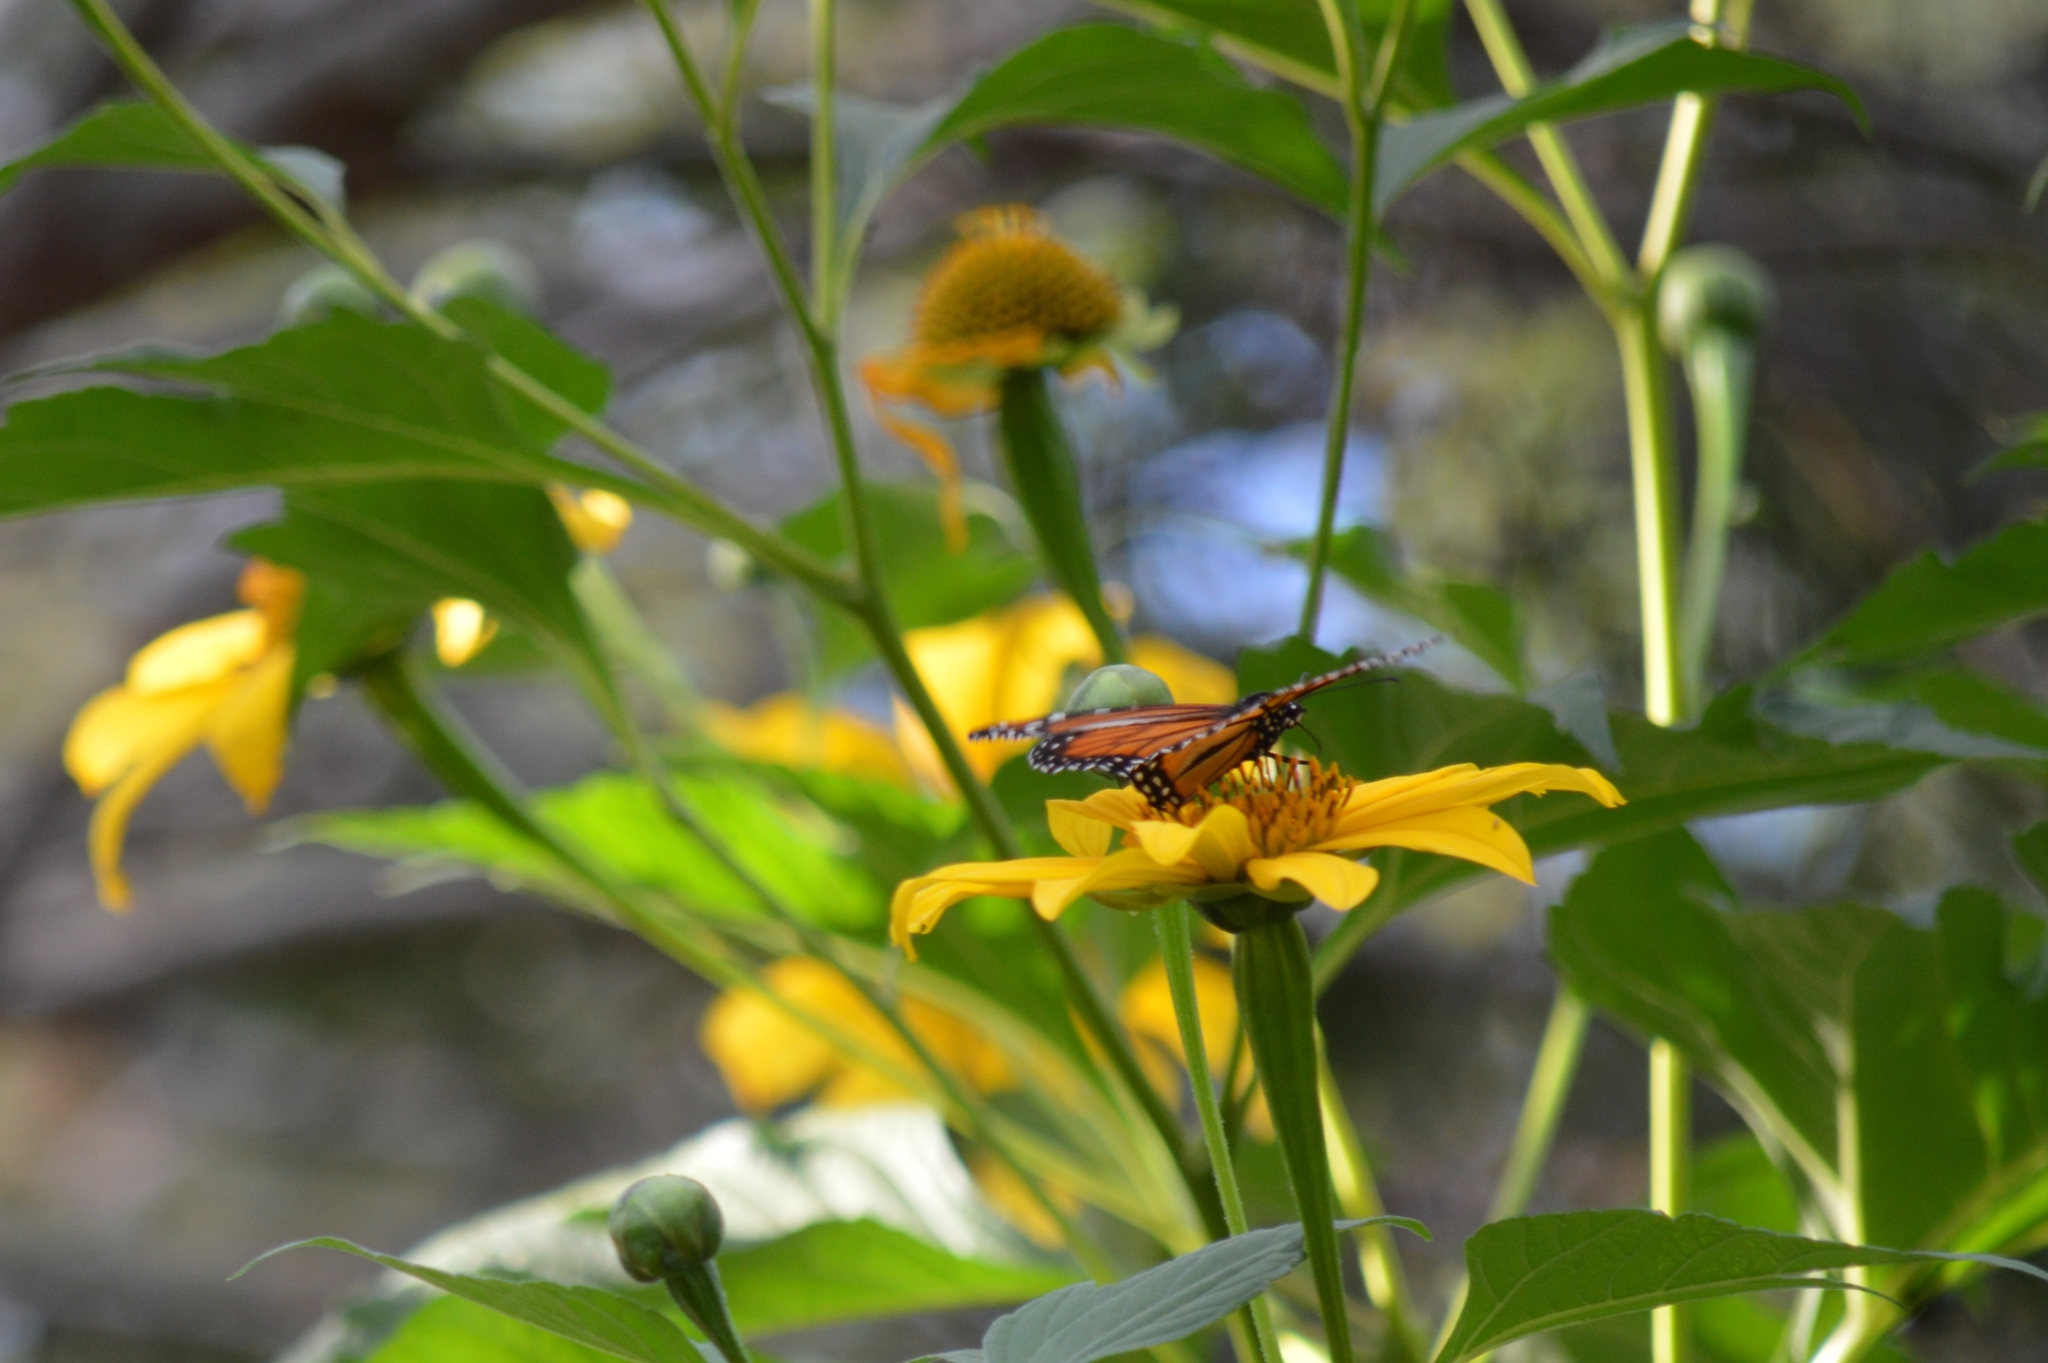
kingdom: Animalia
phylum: Arthropoda
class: Insecta
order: Lepidoptera
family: Nymphalidae
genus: Danaus
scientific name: Danaus erippus
